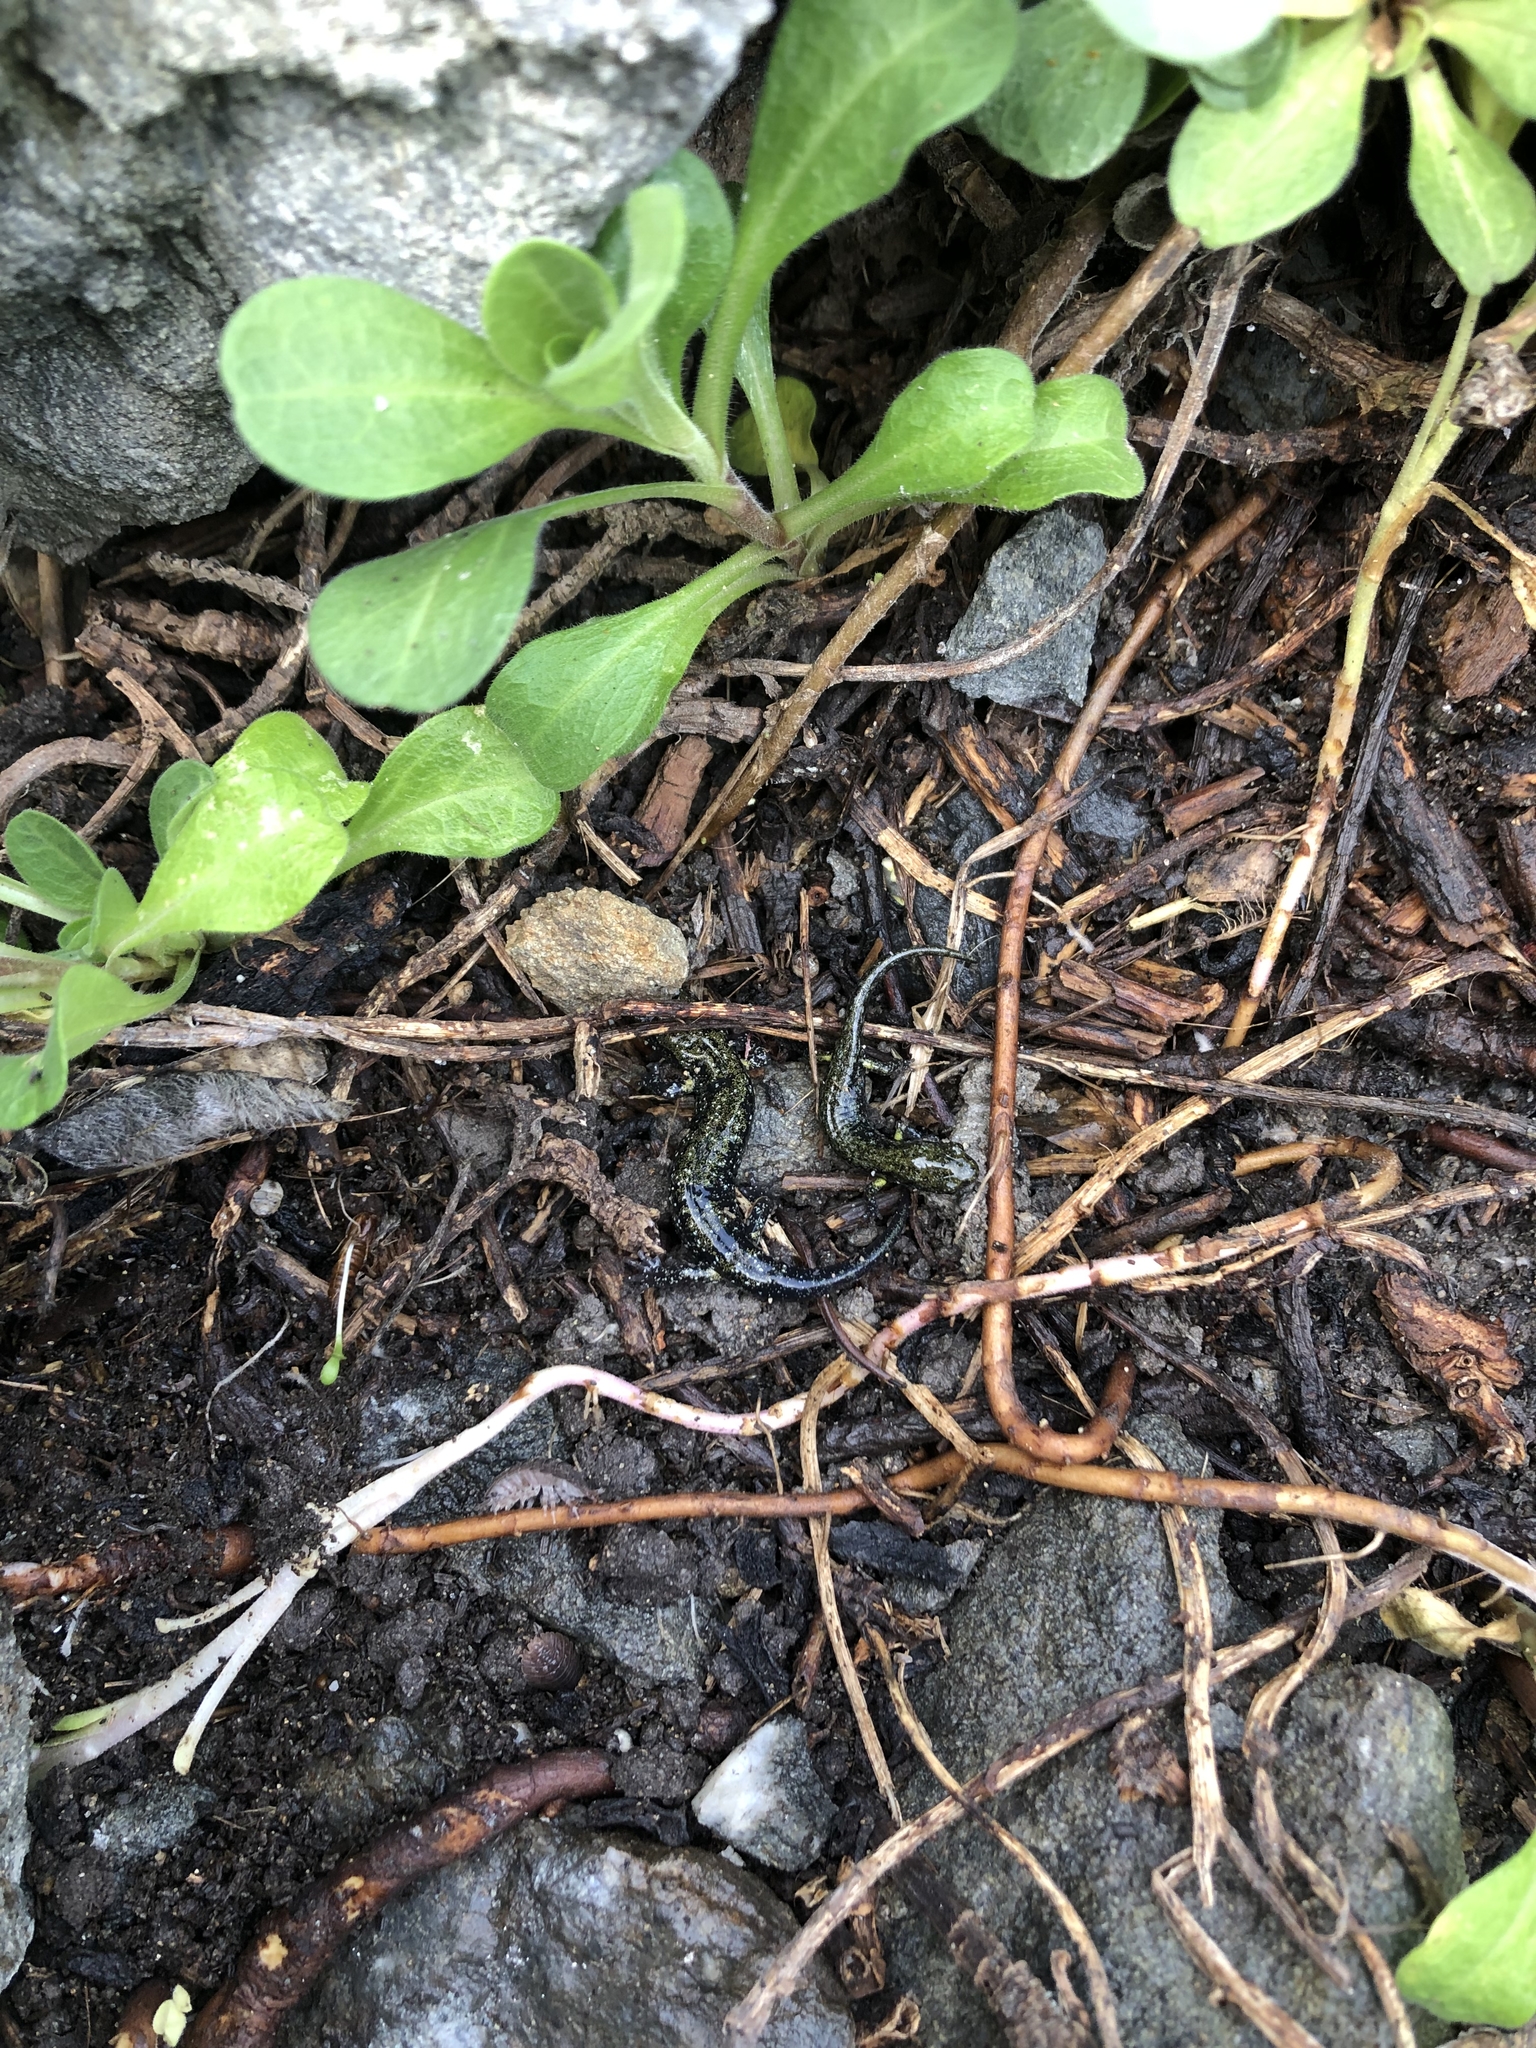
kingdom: Animalia
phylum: Chordata
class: Amphibia
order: Caudata
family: Plethodontidae
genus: Aneides
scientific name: Aneides flavipunctatus
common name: Black salamander
